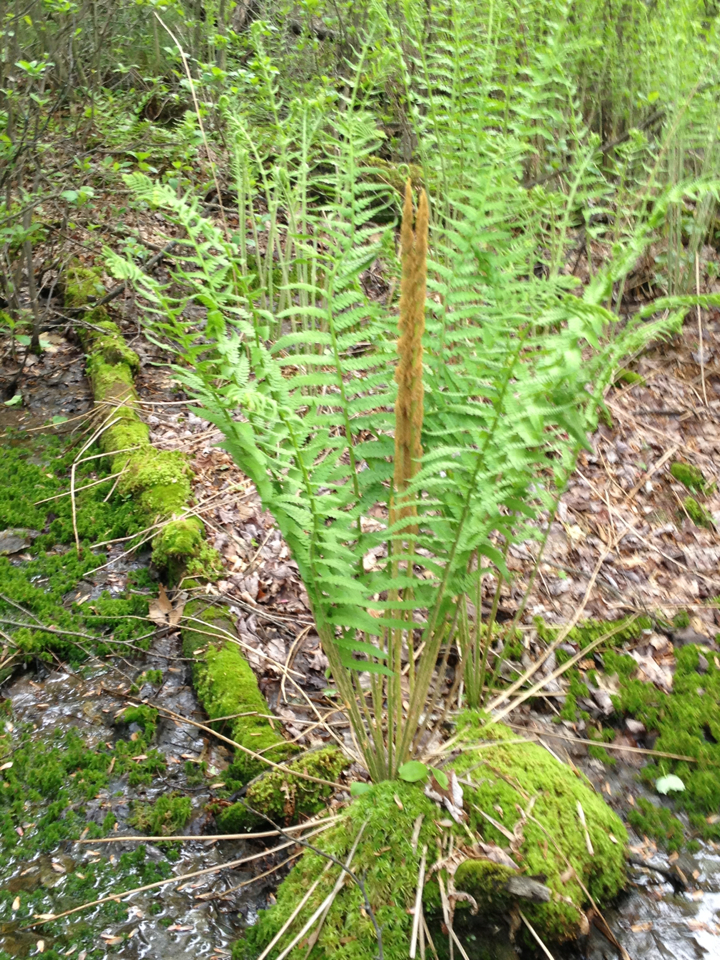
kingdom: Plantae
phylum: Tracheophyta
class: Polypodiopsida
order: Osmundales
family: Osmundaceae
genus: Osmundastrum
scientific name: Osmundastrum cinnamomeum
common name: Cinnamon fern
